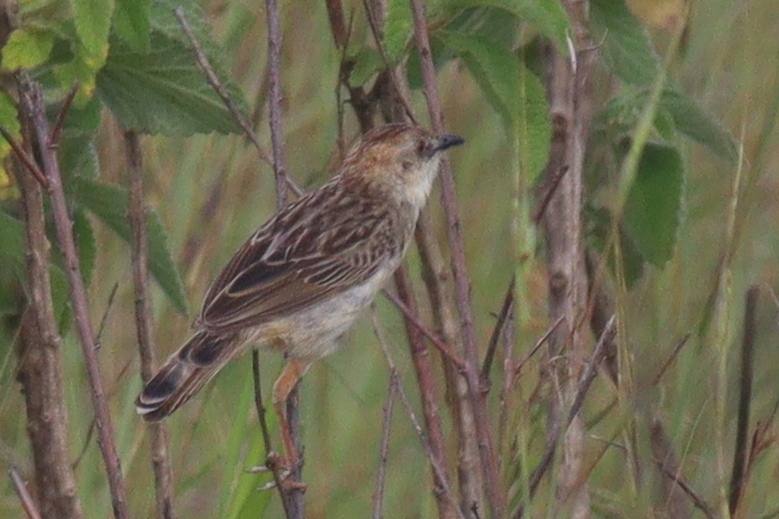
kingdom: Animalia
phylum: Chordata
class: Aves
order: Passeriformes
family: Cisticolidae
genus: Cisticola
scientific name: Cisticola natalensis
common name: Croaking cisticola
